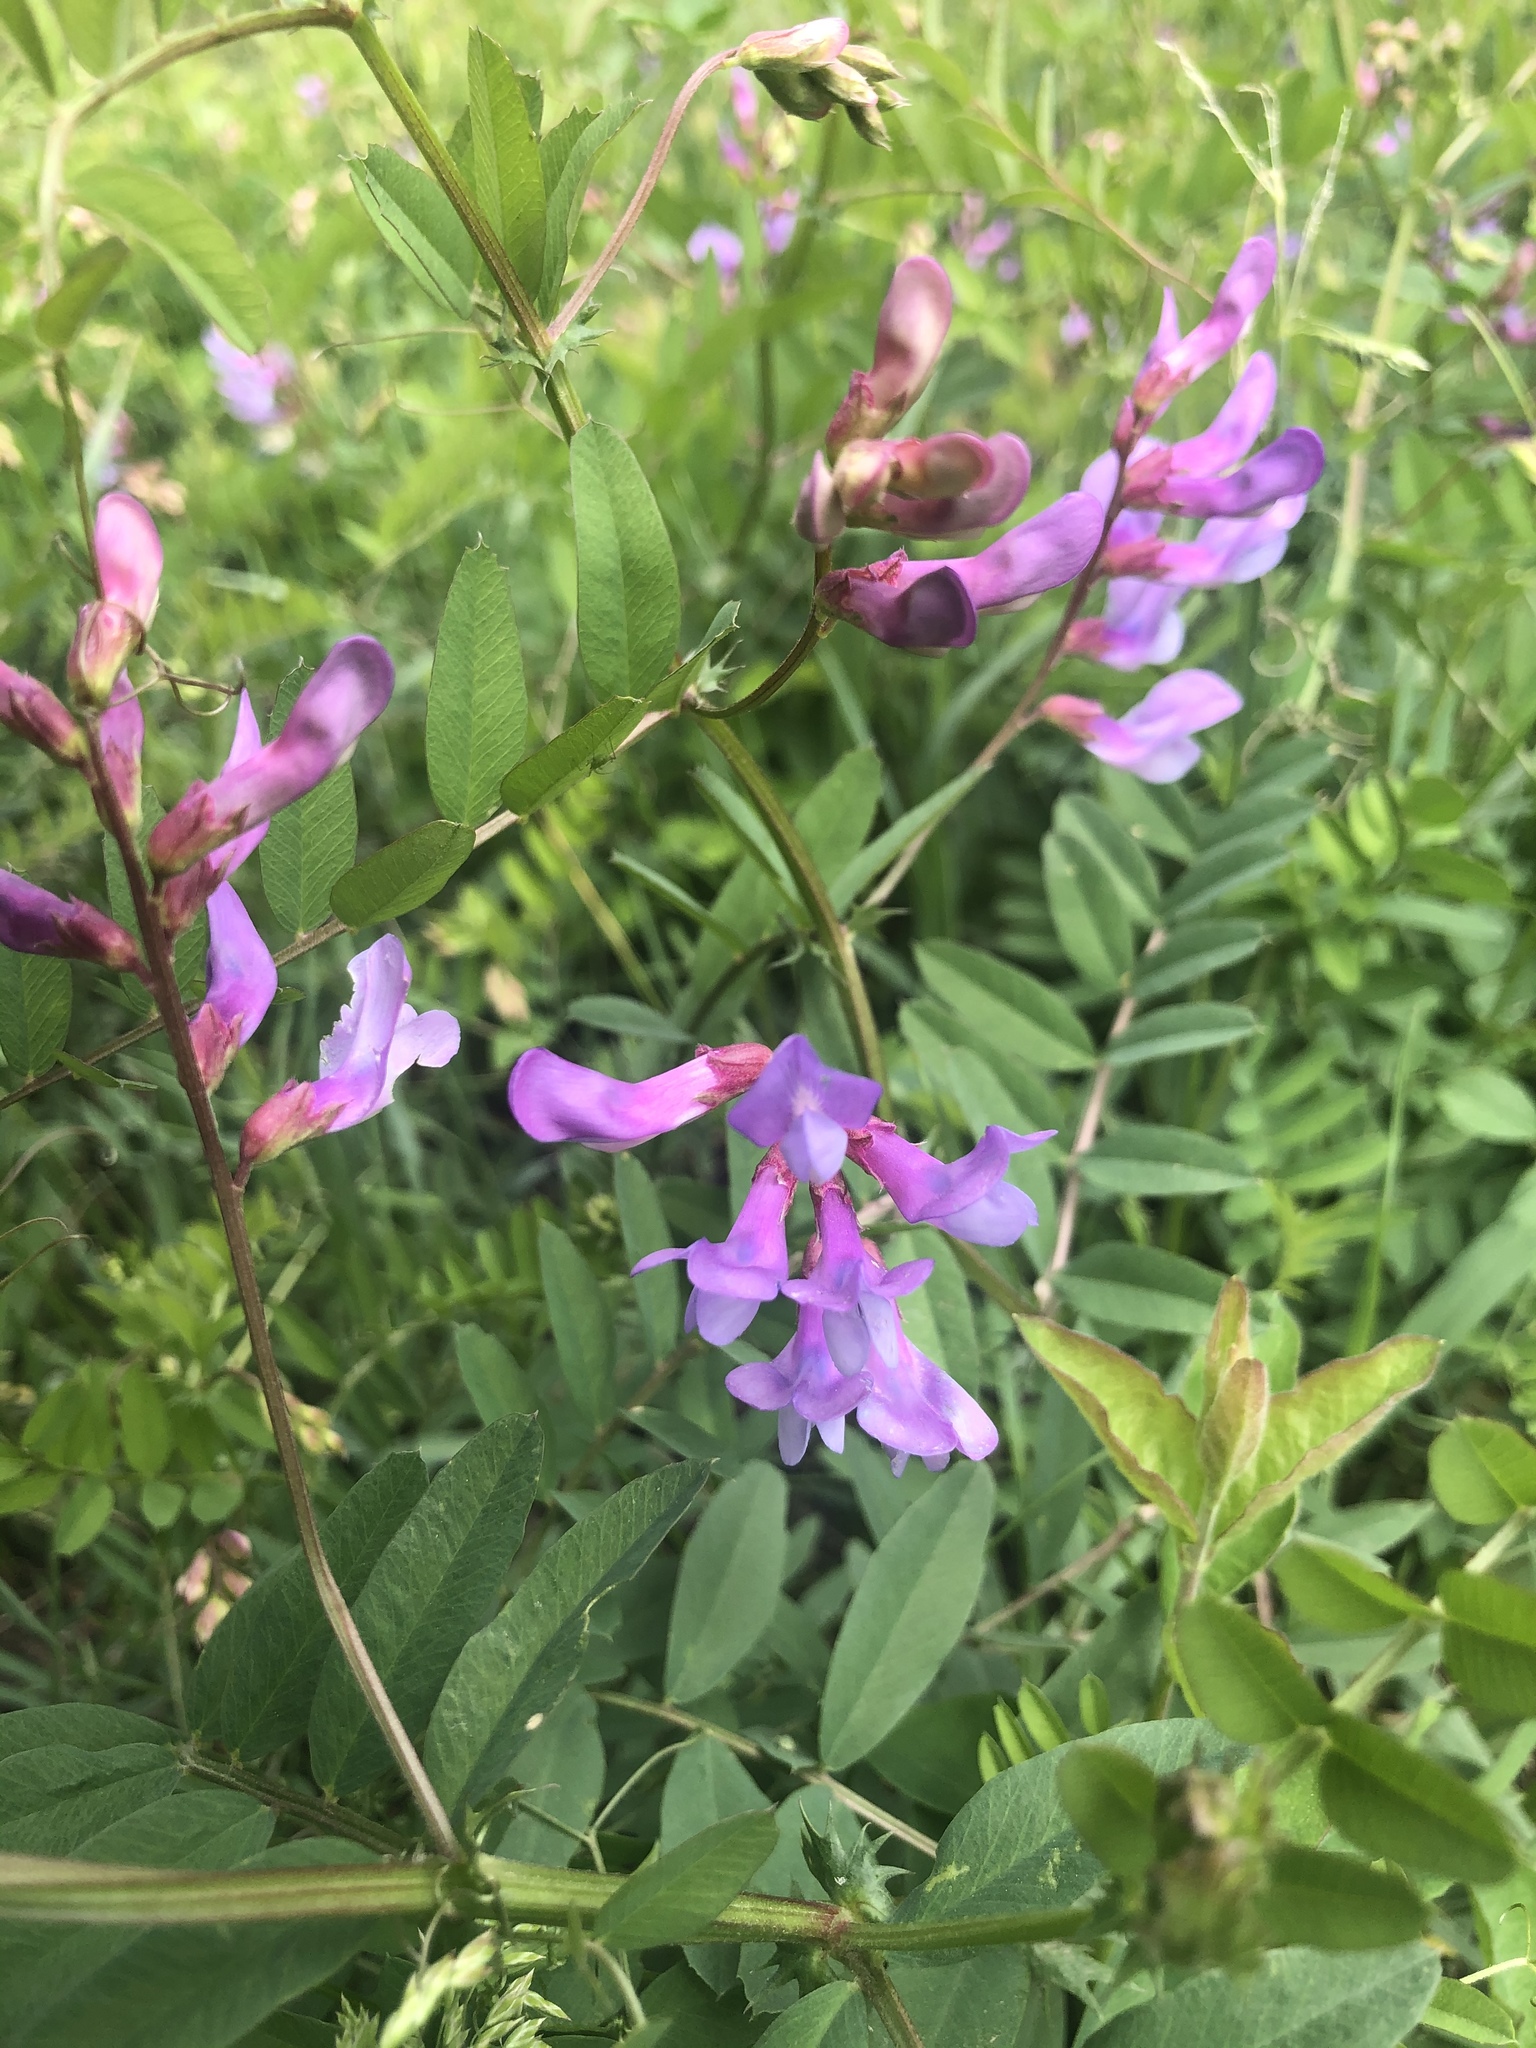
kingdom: Plantae
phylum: Tracheophyta
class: Magnoliopsida
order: Fabales
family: Fabaceae
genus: Vicia
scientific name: Vicia americana
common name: American vetch
